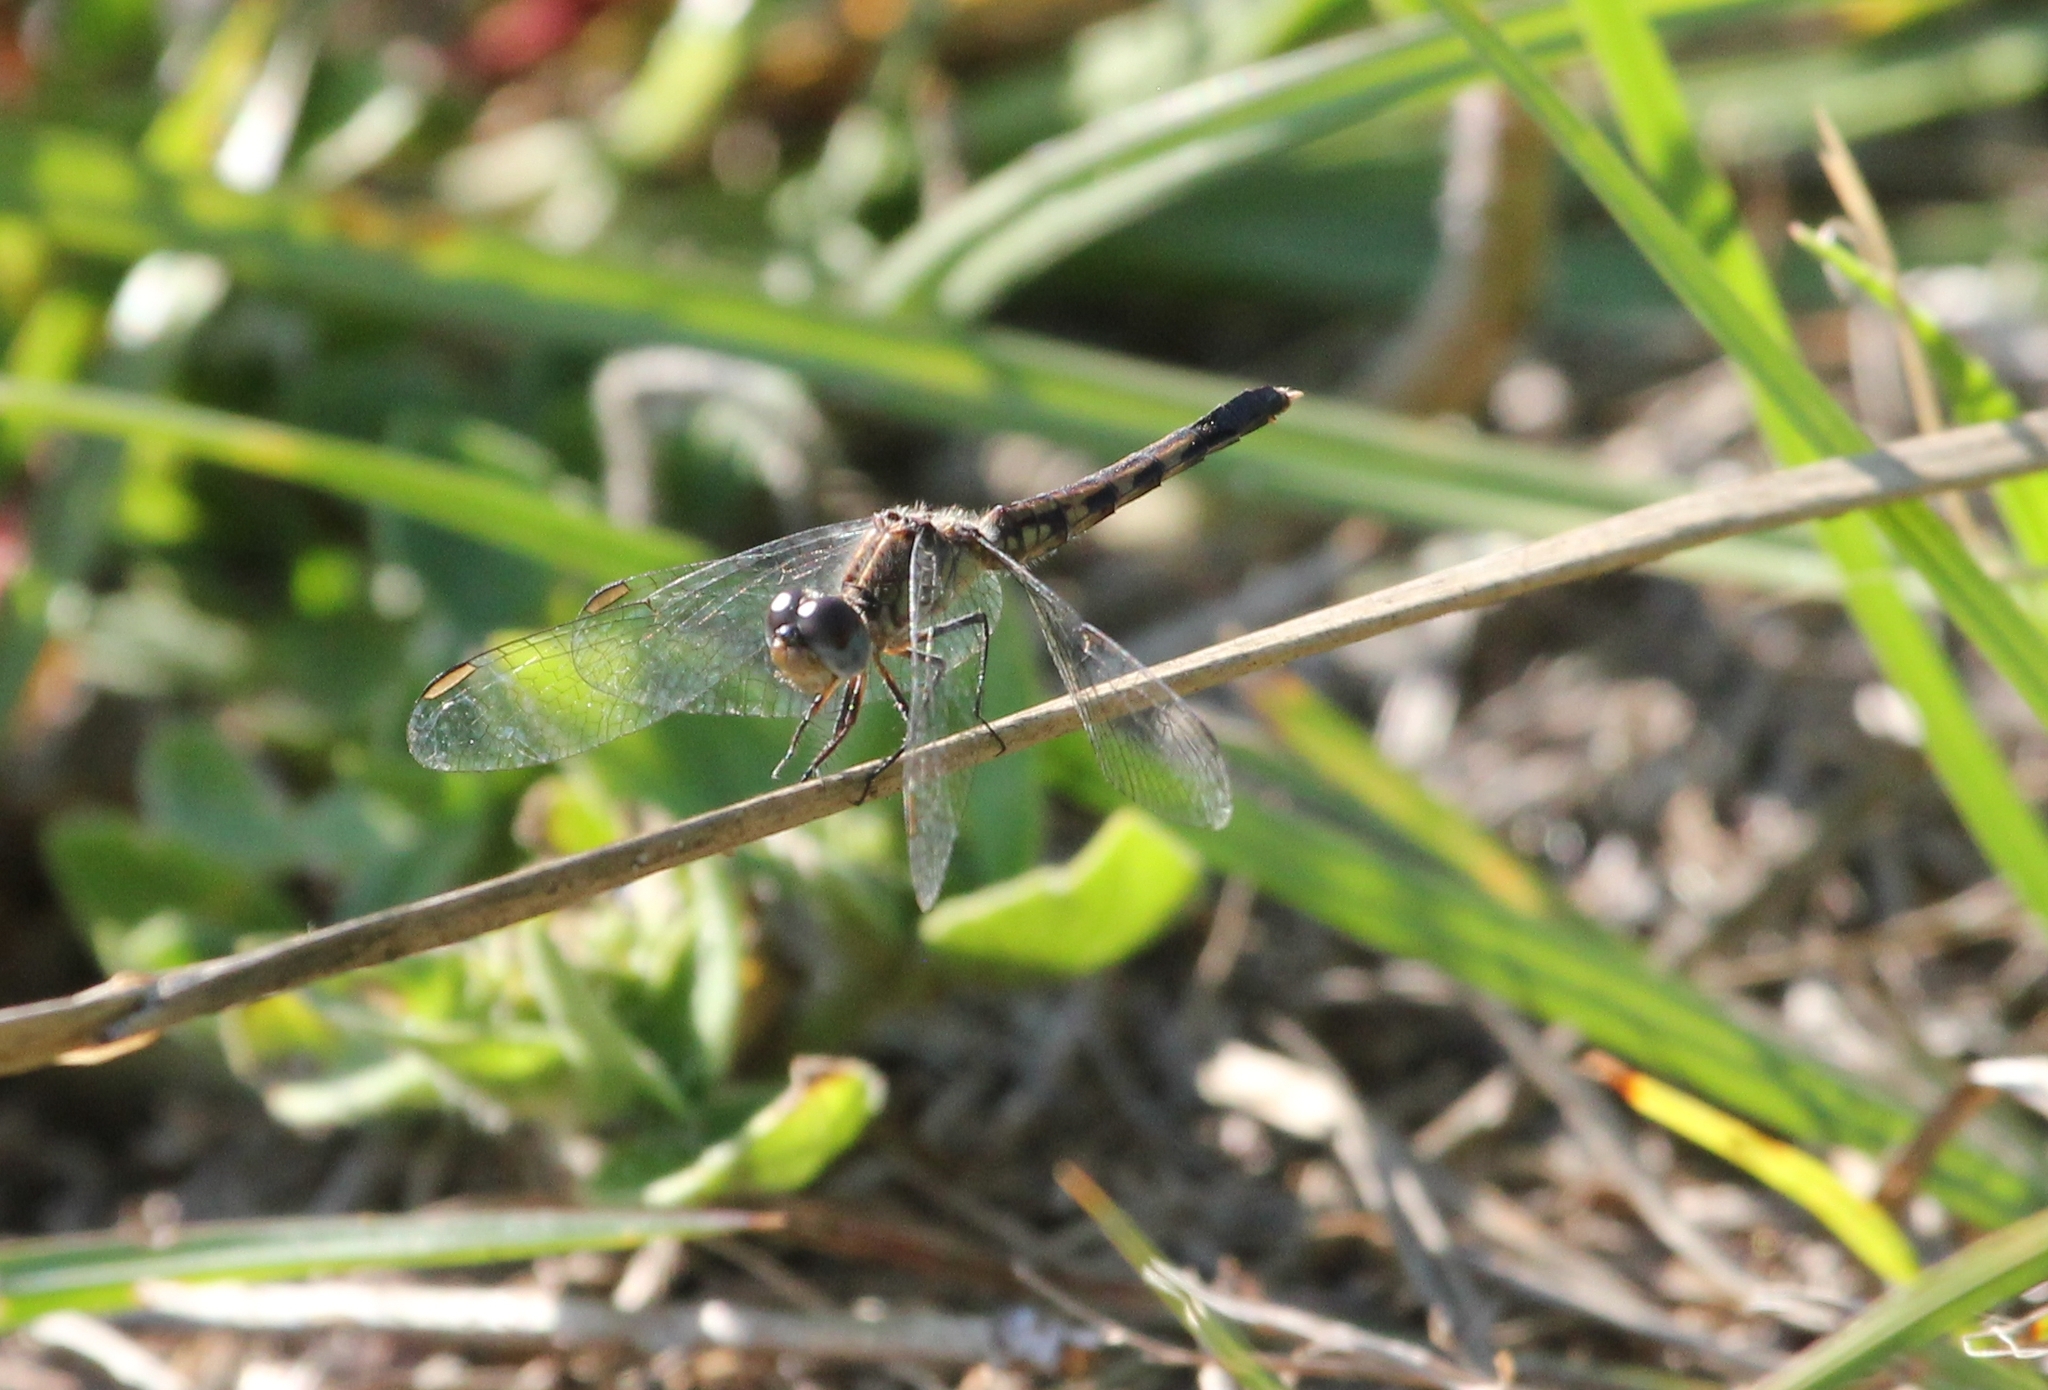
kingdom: Animalia
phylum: Arthropoda
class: Insecta
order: Odonata
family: Libellulidae
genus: Erythrodiplax
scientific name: Erythrodiplax minuscula
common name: Little blue dragonlet
